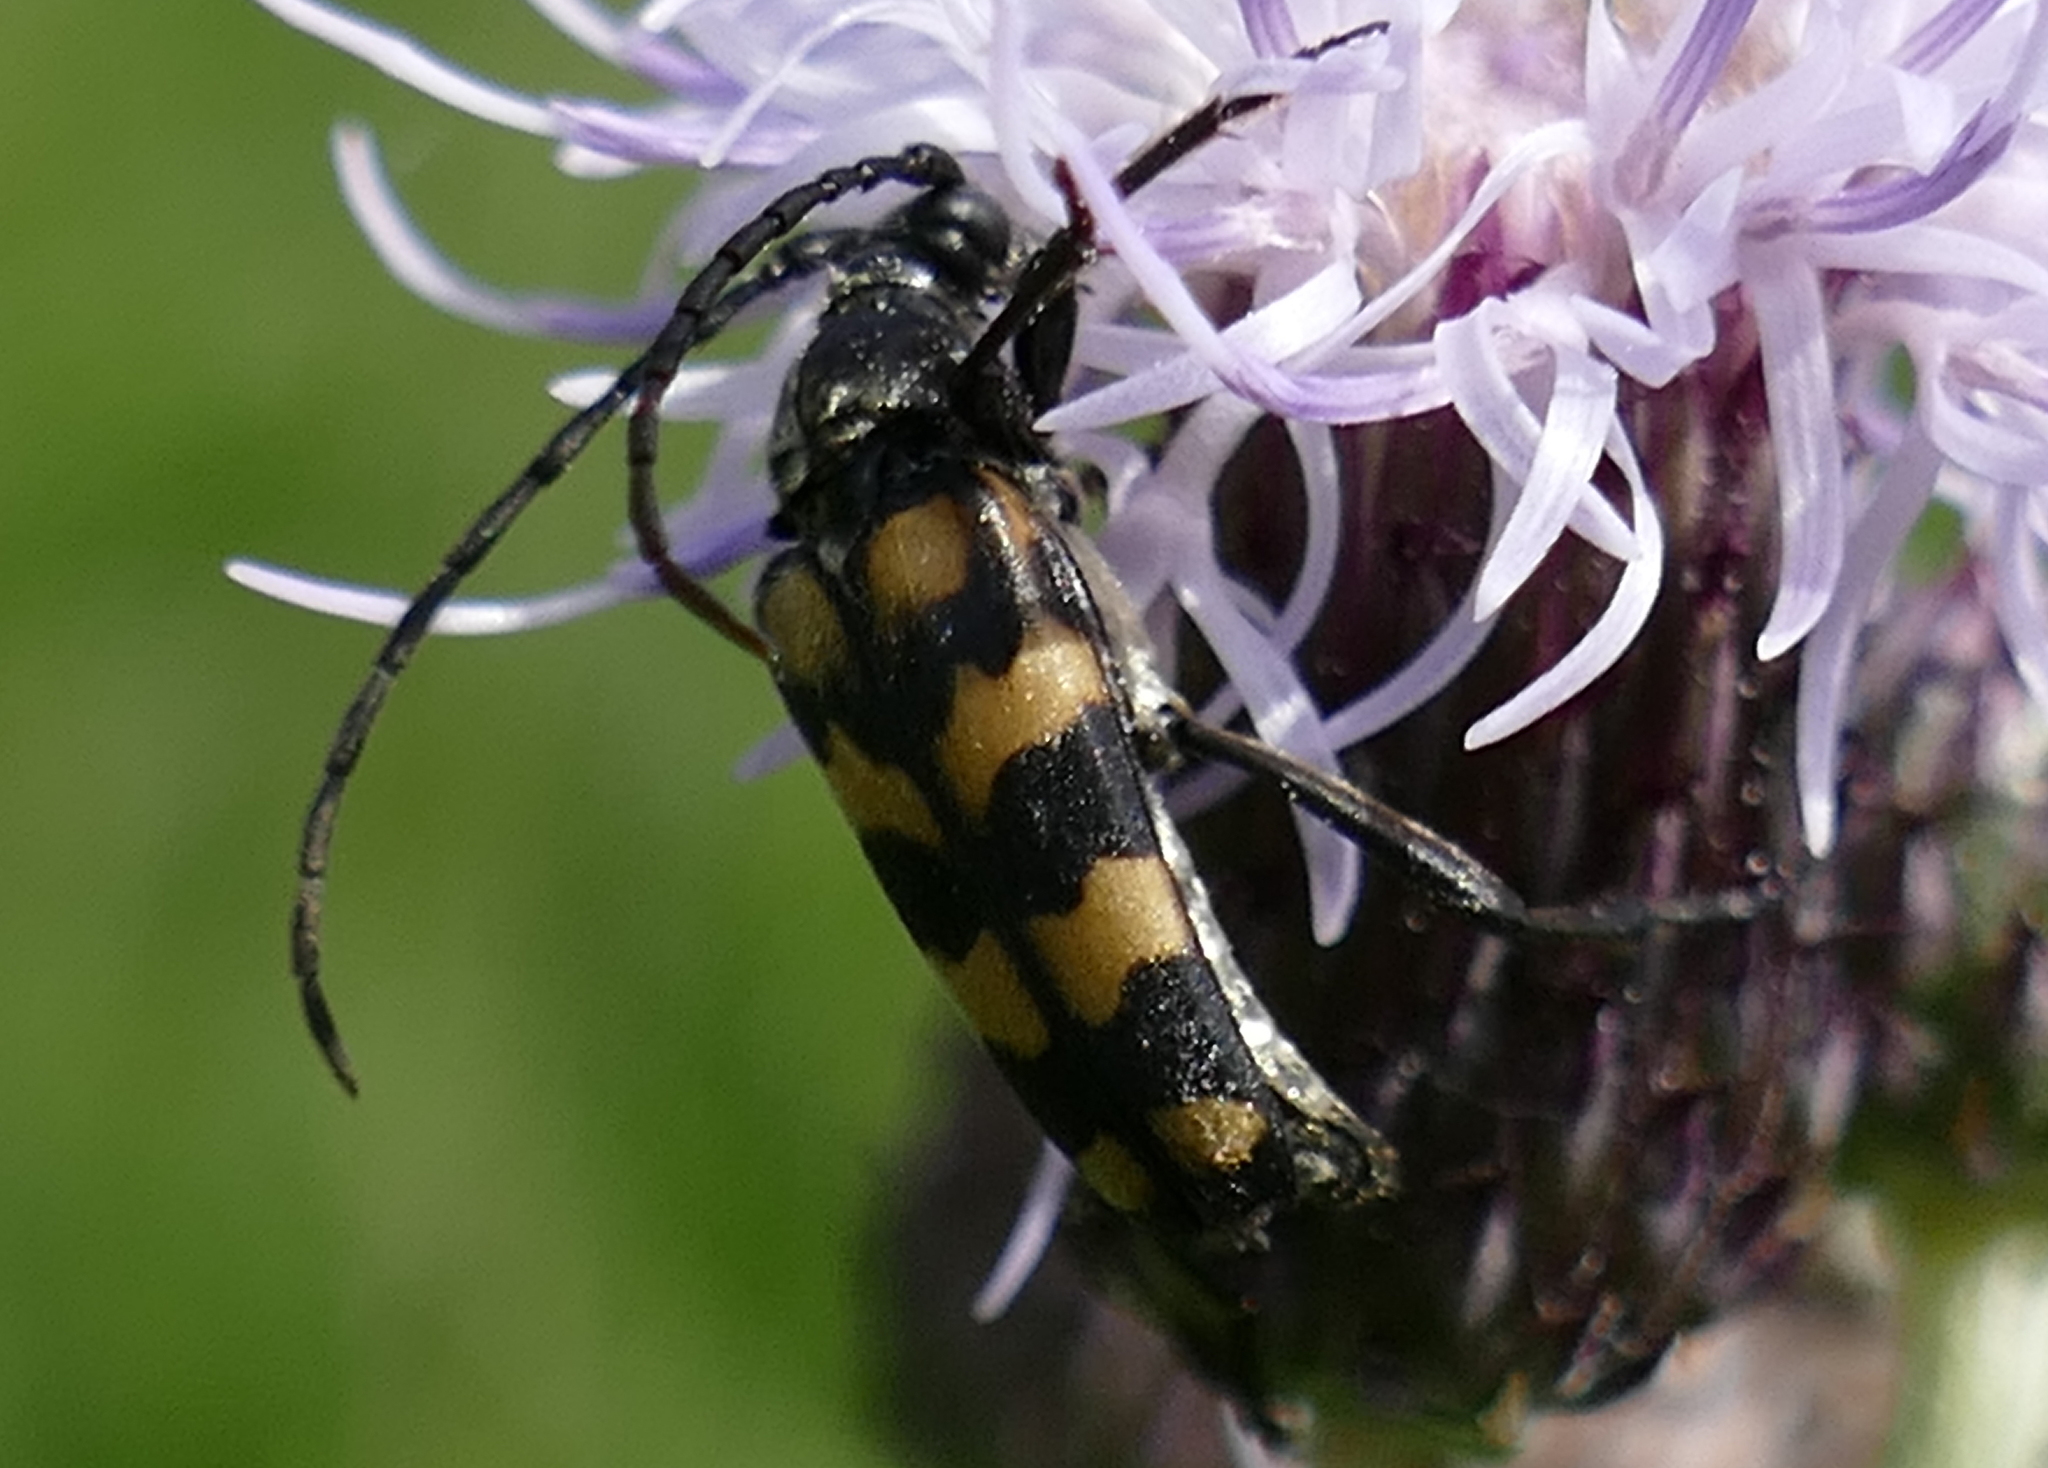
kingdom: Animalia
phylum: Arthropoda
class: Insecta
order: Coleoptera
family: Cerambycidae
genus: Leptura
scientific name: Leptura quadrifasciata
